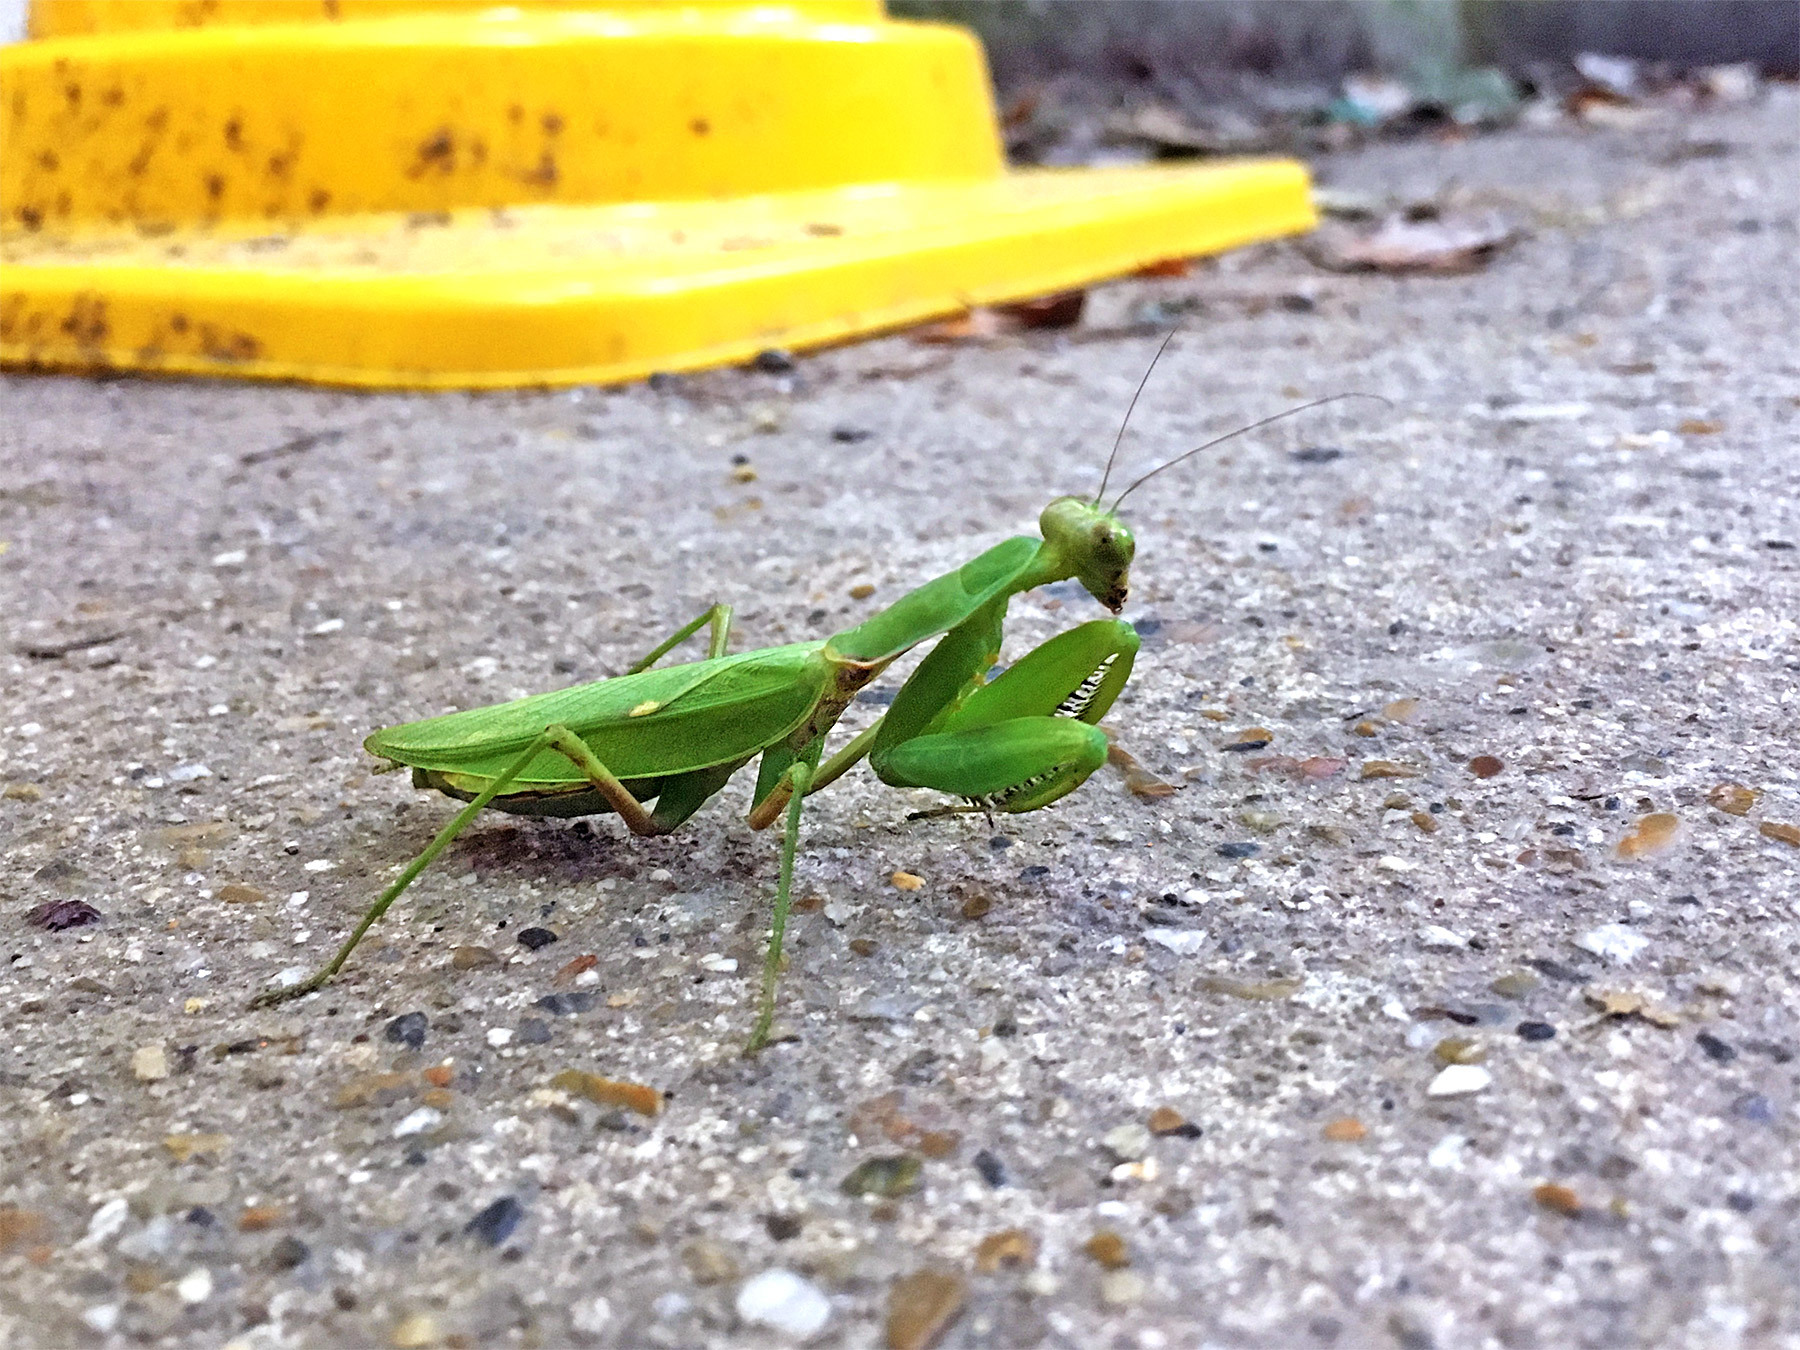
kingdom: Animalia
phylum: Arthropoda
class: Insecta
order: Mantodea
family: Mantidae
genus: Hierodula
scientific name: Hierodula patellifera
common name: Asian mantis
